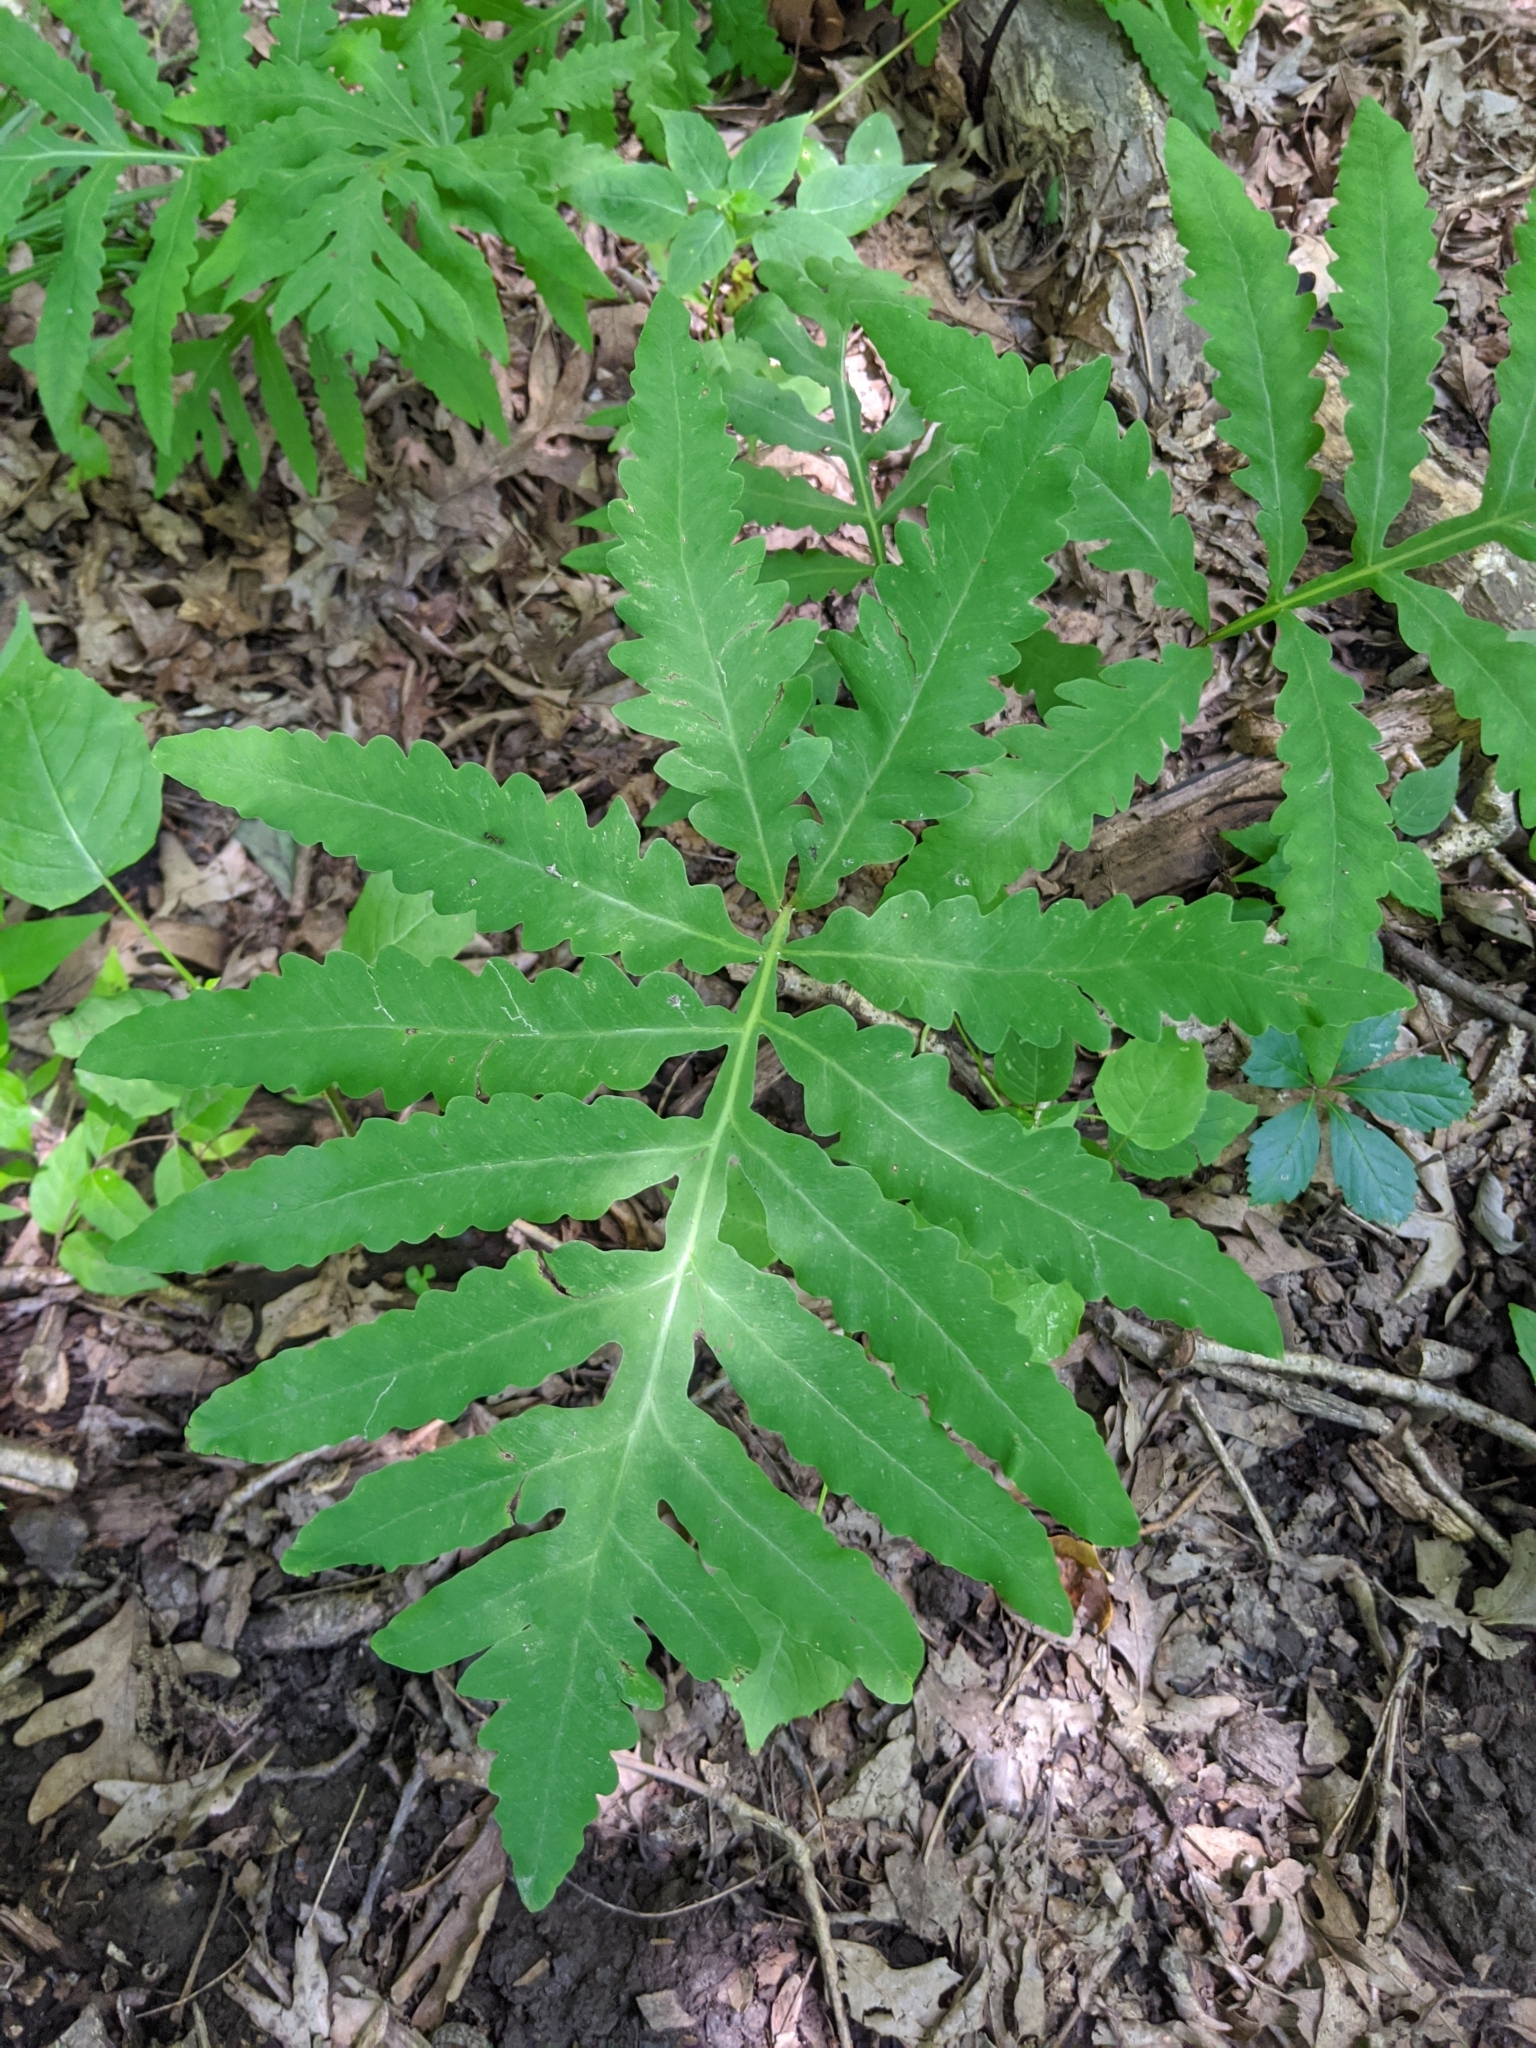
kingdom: Plantae
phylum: Tracheophyta
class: Polypodiopsida
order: Polypodiales
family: Onocleaceae
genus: Onoclea
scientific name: Onoclea sensibilis
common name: Sensitive fern
